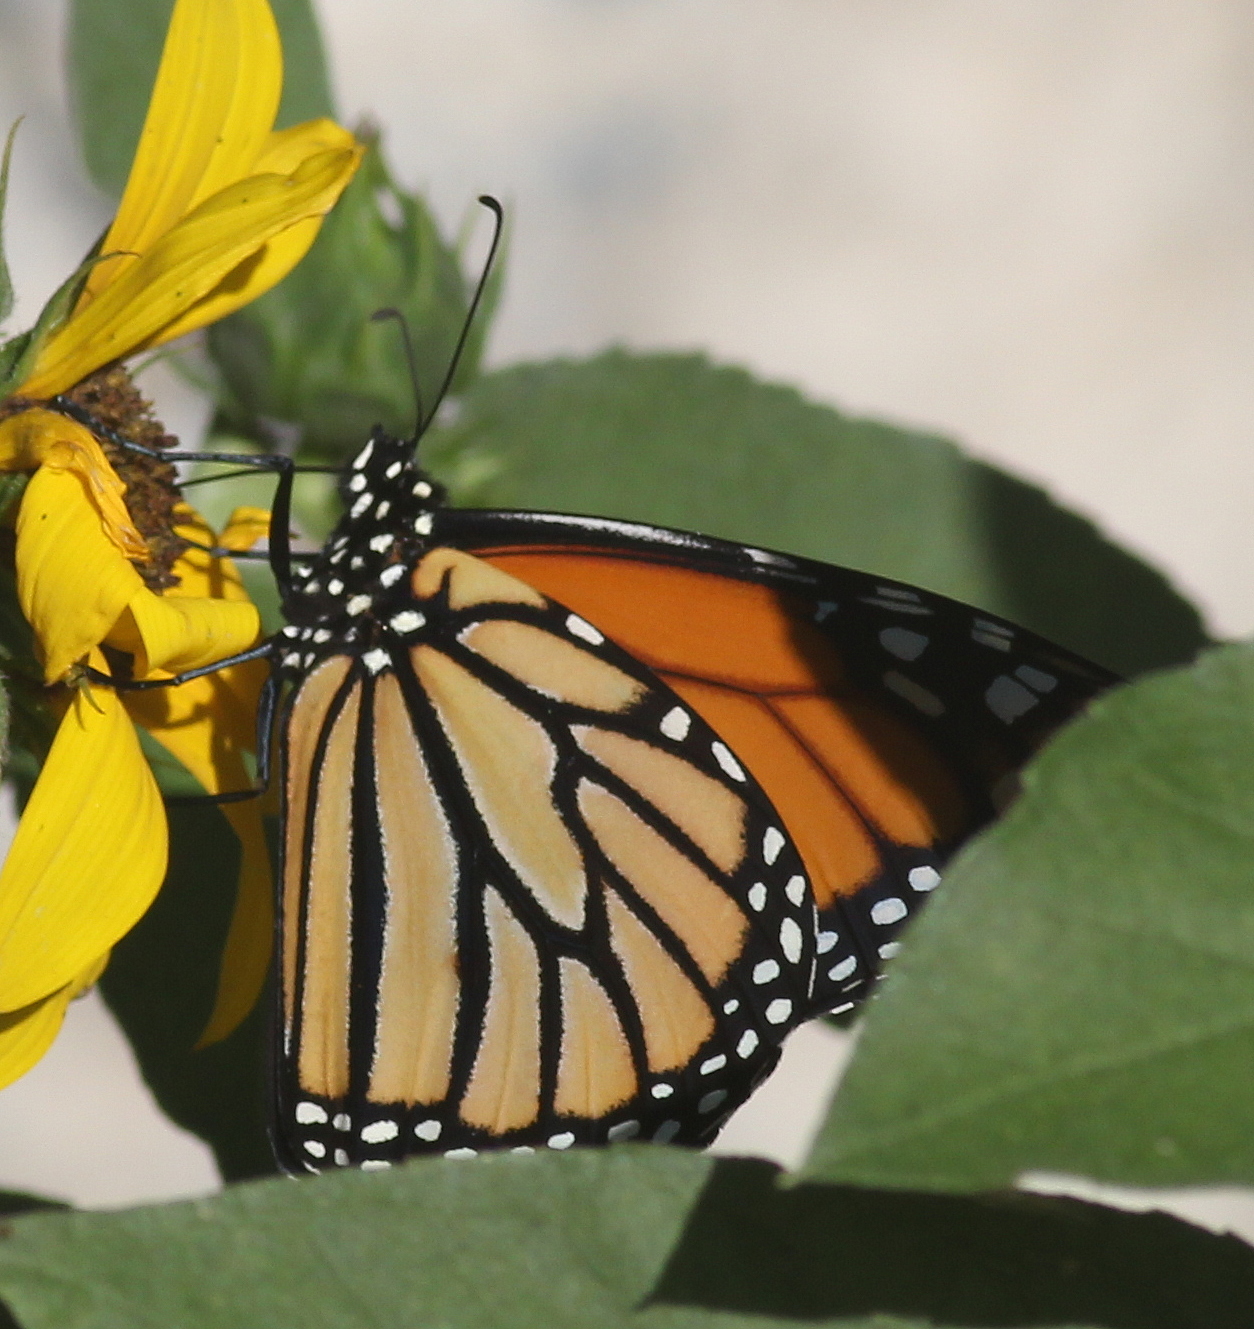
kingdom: Animalia
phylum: Arthropoda
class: Insecta
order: Lepidoptera
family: Nymphalidae
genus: Danaus
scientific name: Danaus plexippus
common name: Monarch
